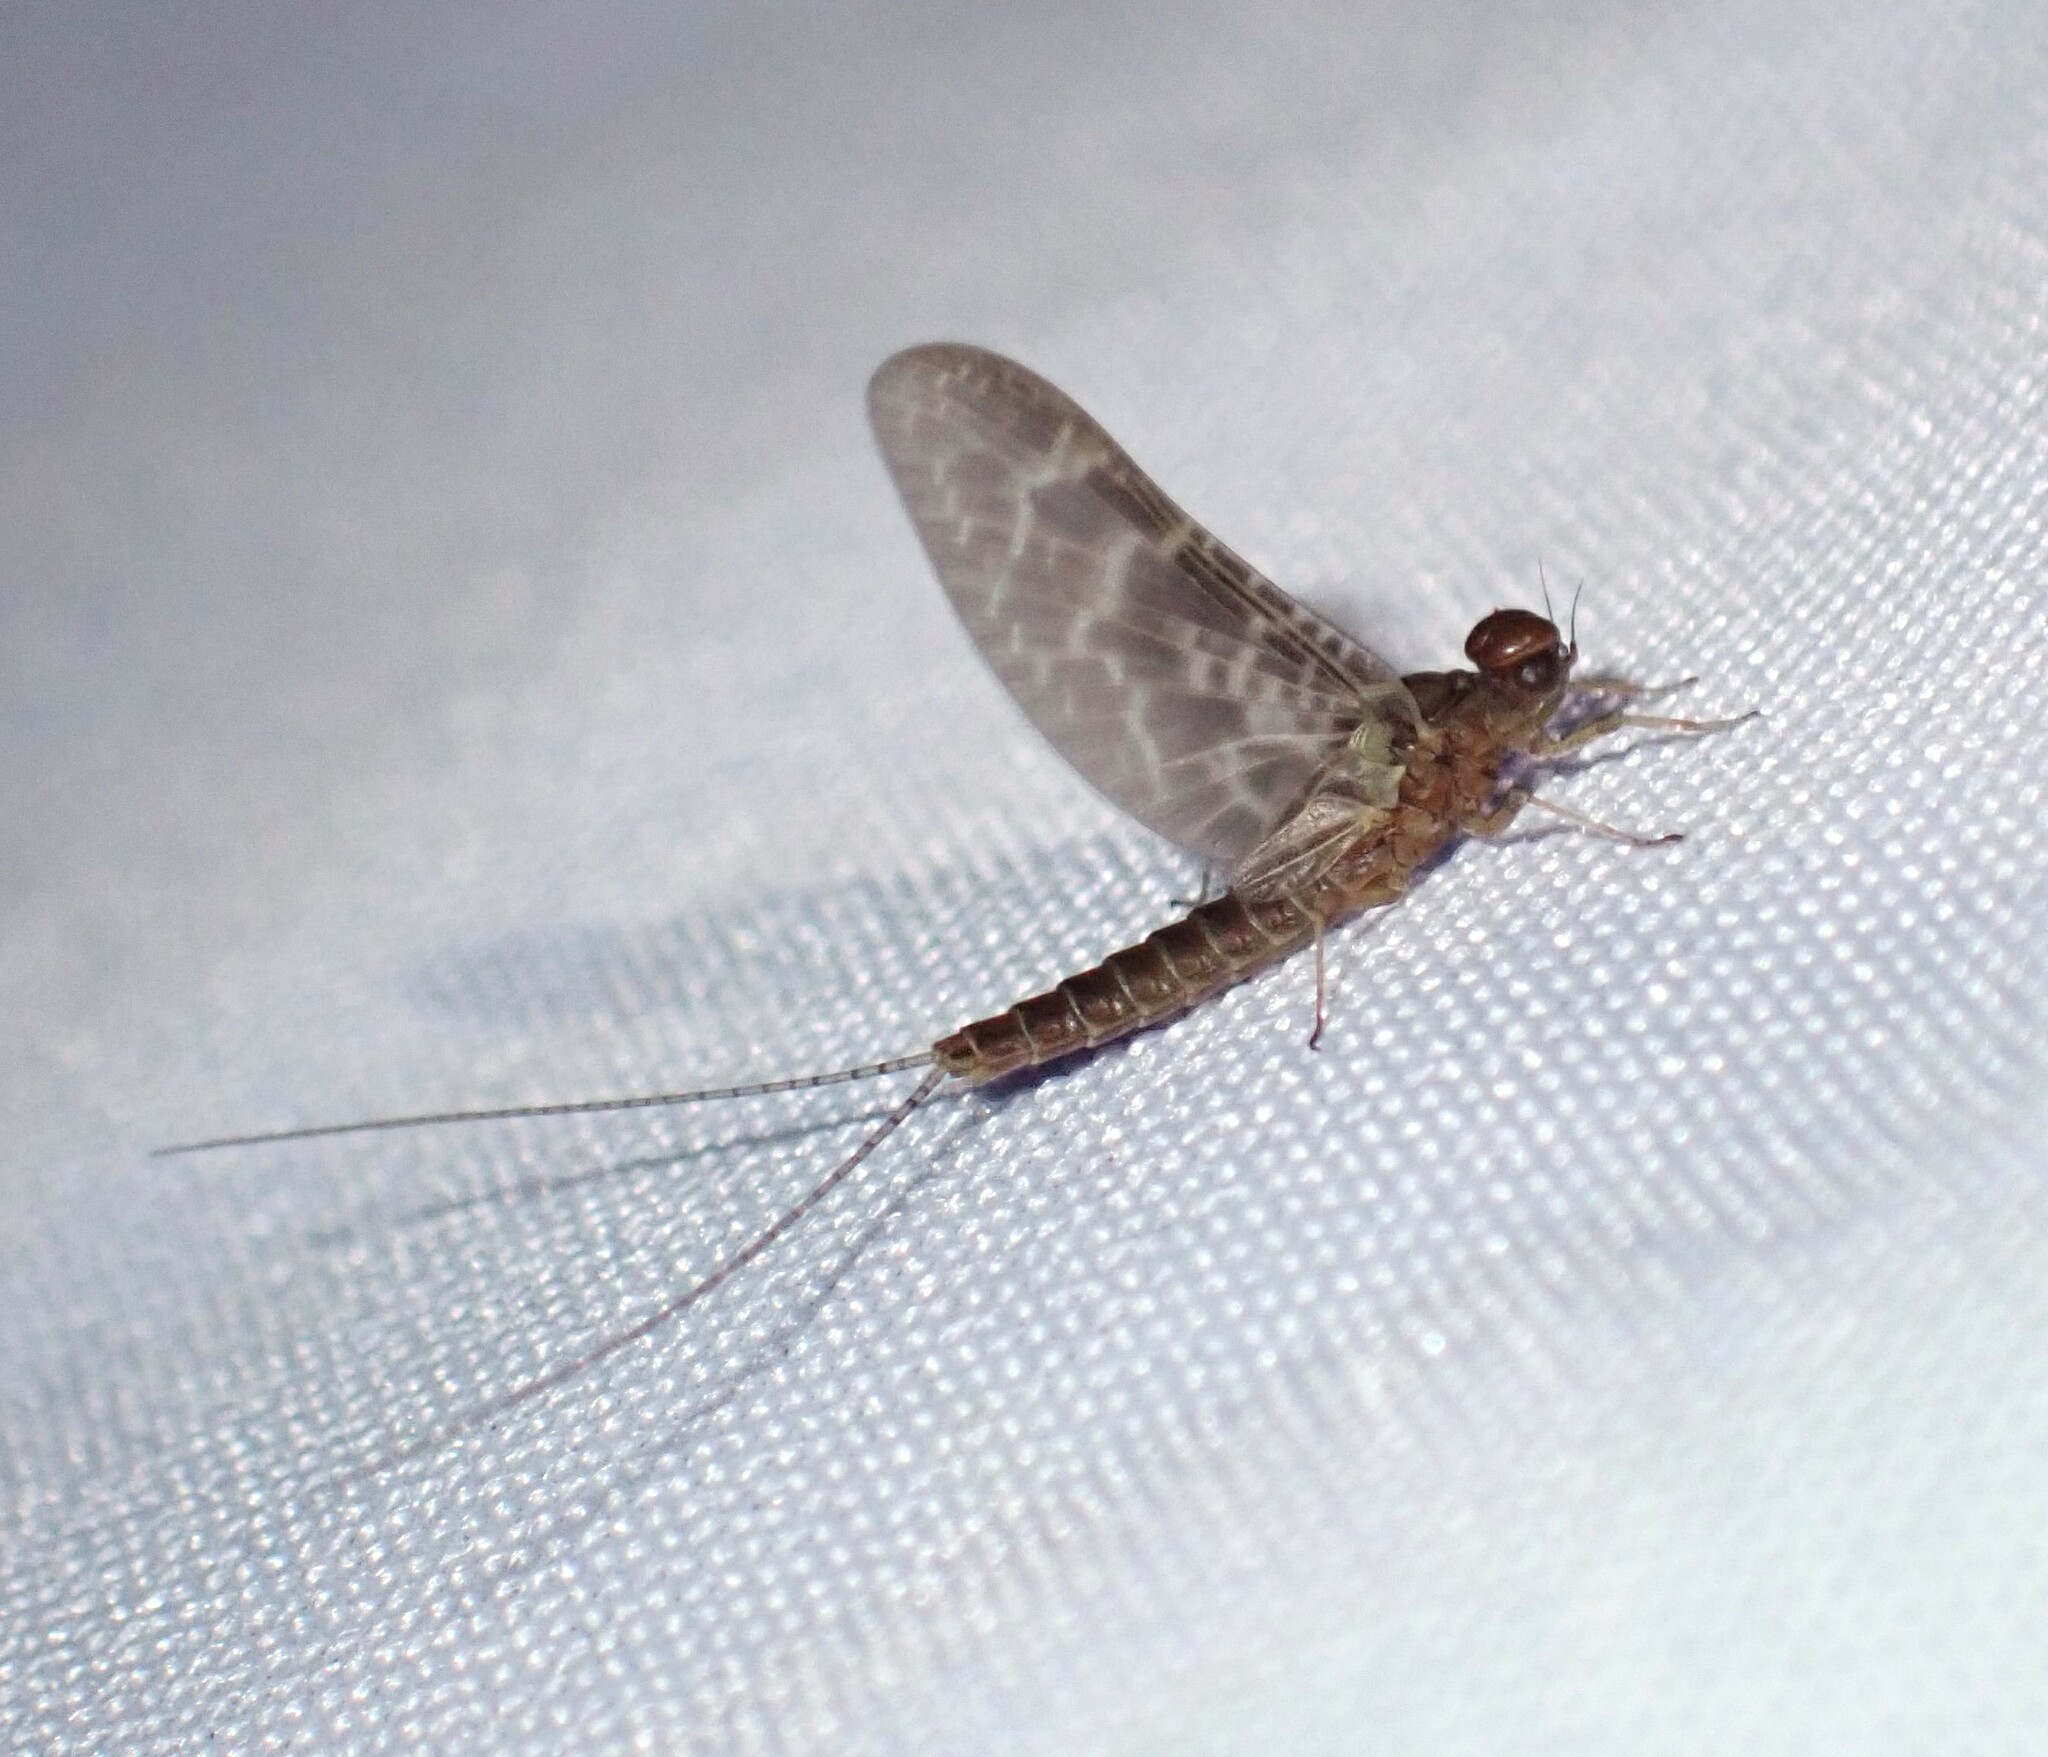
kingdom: Animalia
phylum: Arthropoda
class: Insecta
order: Ephemeroptera
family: Baetidae
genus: Callibaetis
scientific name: Callibaetis ferrugineus
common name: Red speckled dun
